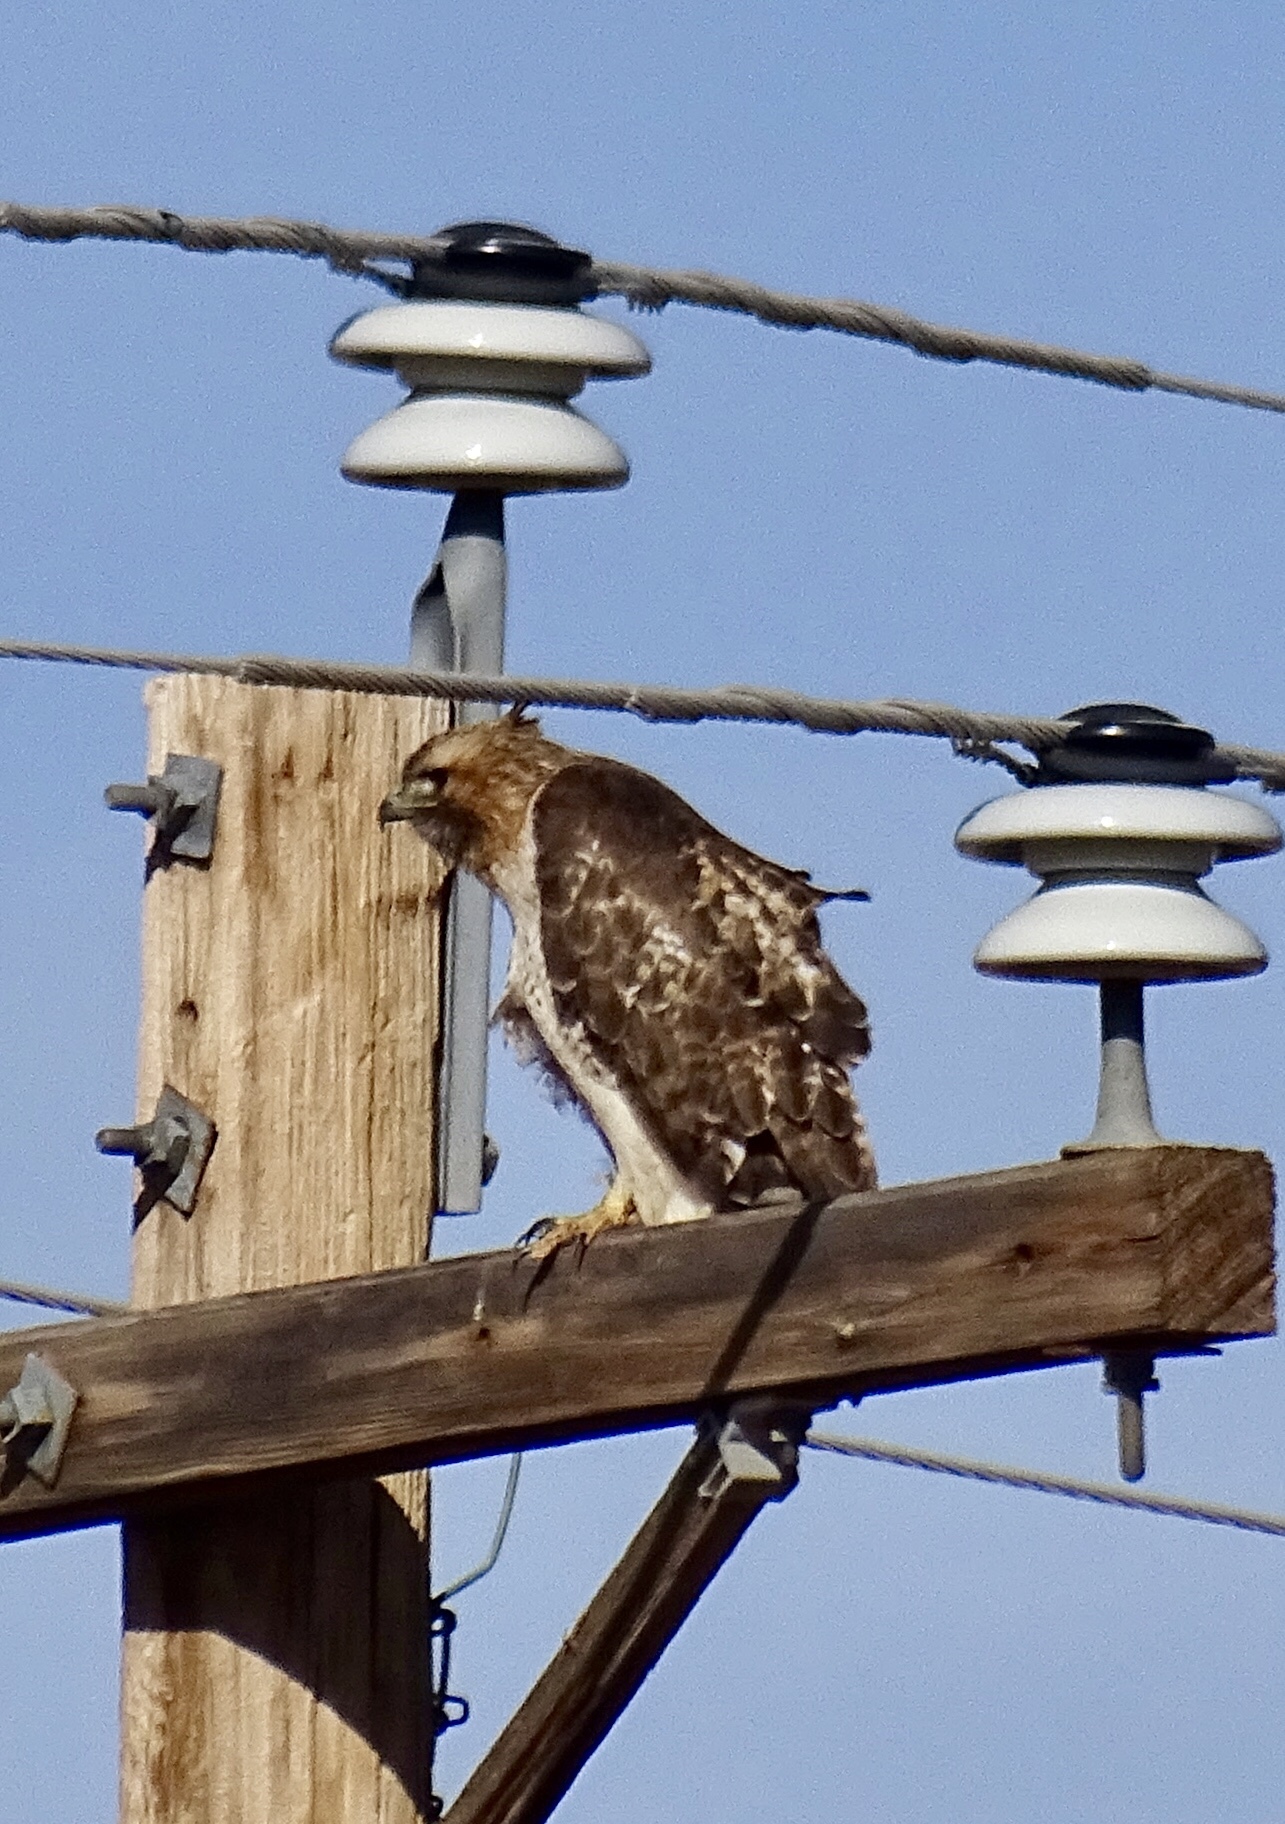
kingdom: Animalia
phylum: Chordata
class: Aves
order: Accipitriformes
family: Accipitridae
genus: Buteo
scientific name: Buteo jamaicensis
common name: Red-tailed hawk
